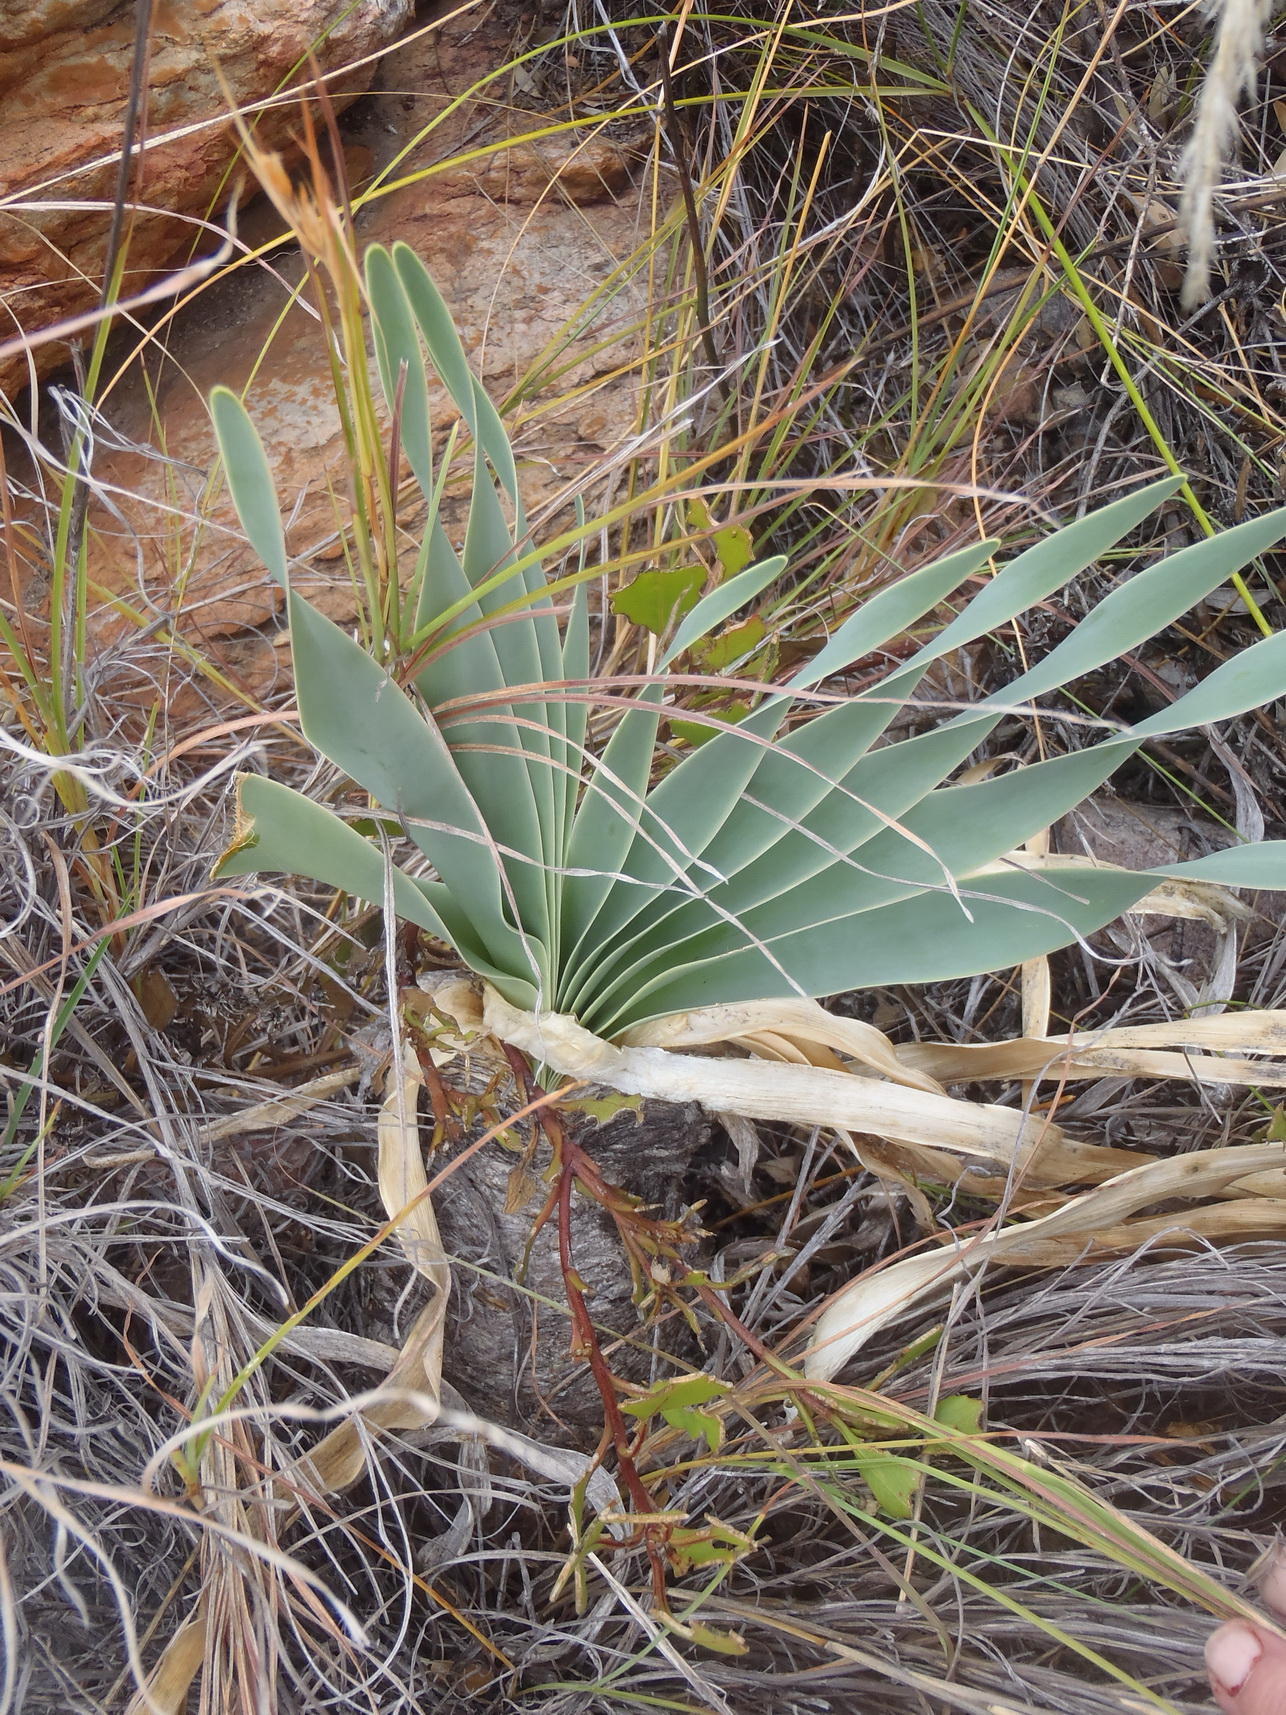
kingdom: Plantae
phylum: Tracheophyta
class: Liliopsida
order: Asparagales
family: Amaryllidaceae
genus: Boophone
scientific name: Boophone disticha
